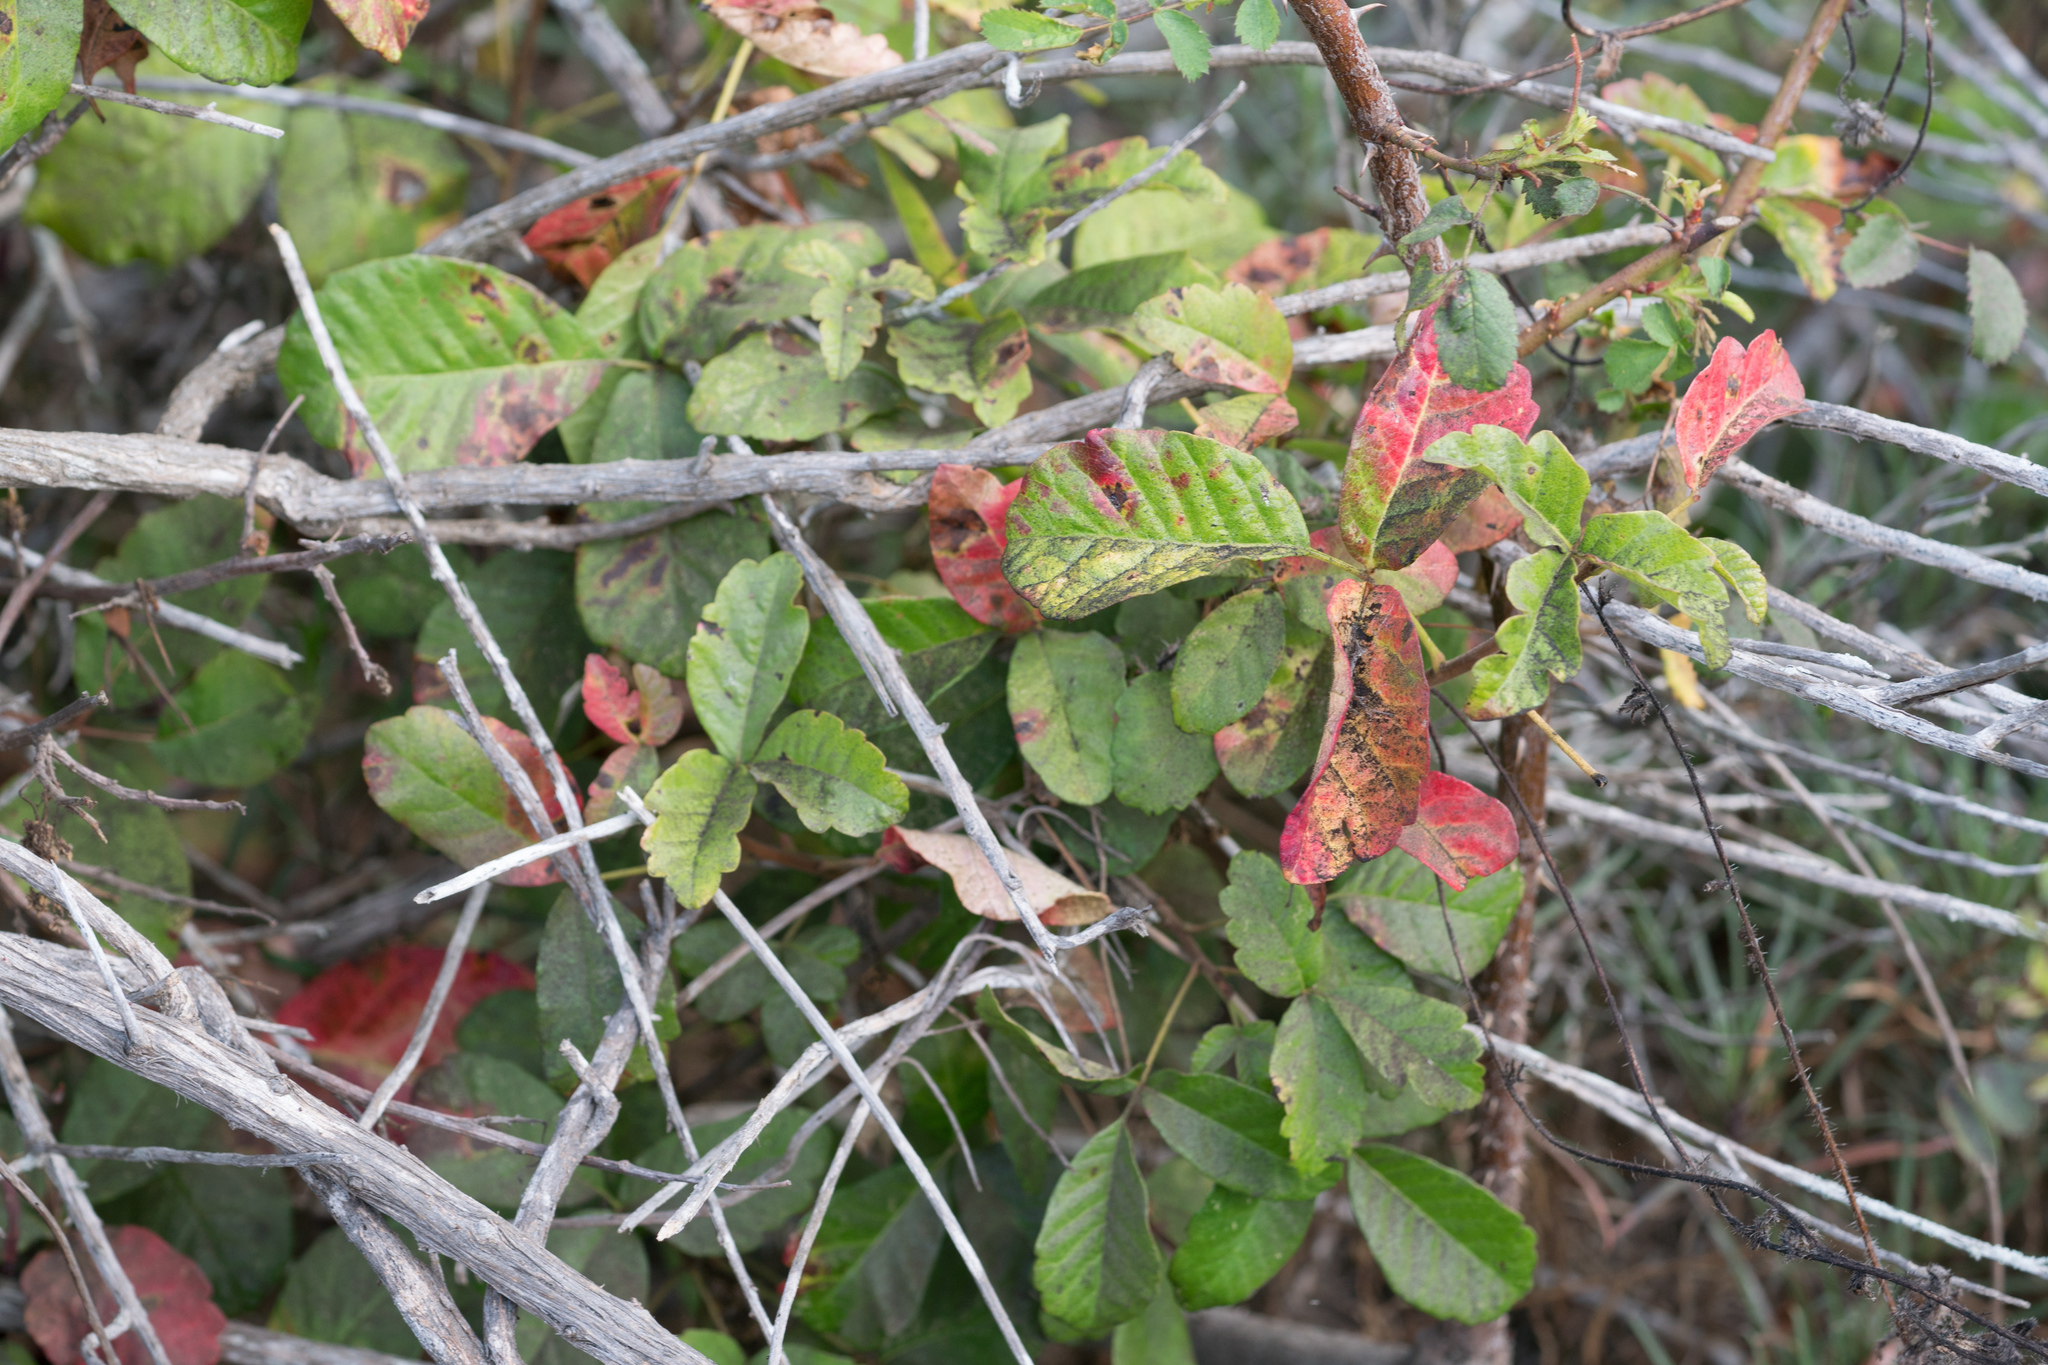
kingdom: Plantae
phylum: Tracheophyta
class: Magnoliopsida
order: Sapindales
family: Anacardiaceae
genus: Toxicodendron
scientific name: Toxicodendron diversilobum
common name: Pacific poison-oak
